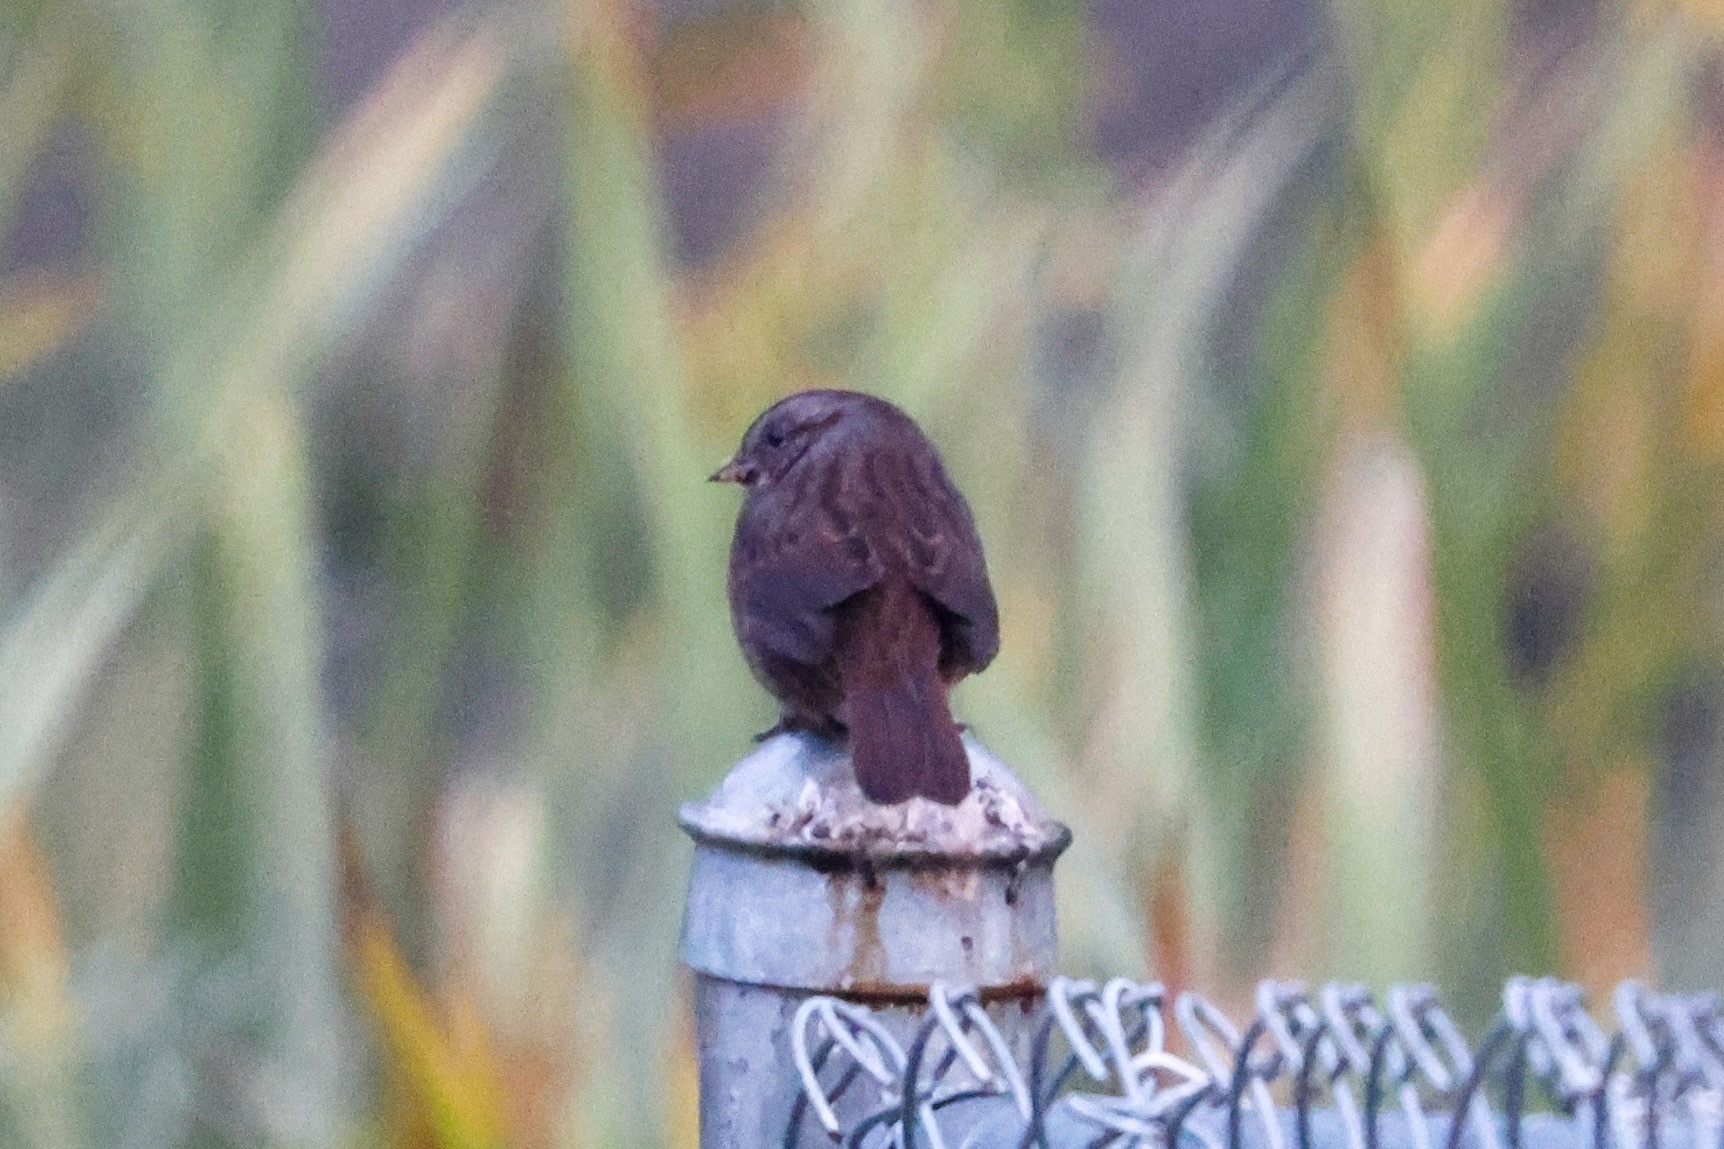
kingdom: Animalia
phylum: Chordata
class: Aves
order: Passeriformes
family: Passerellidae
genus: Melospiza
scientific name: Melospiza melodia
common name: Song sparrow
